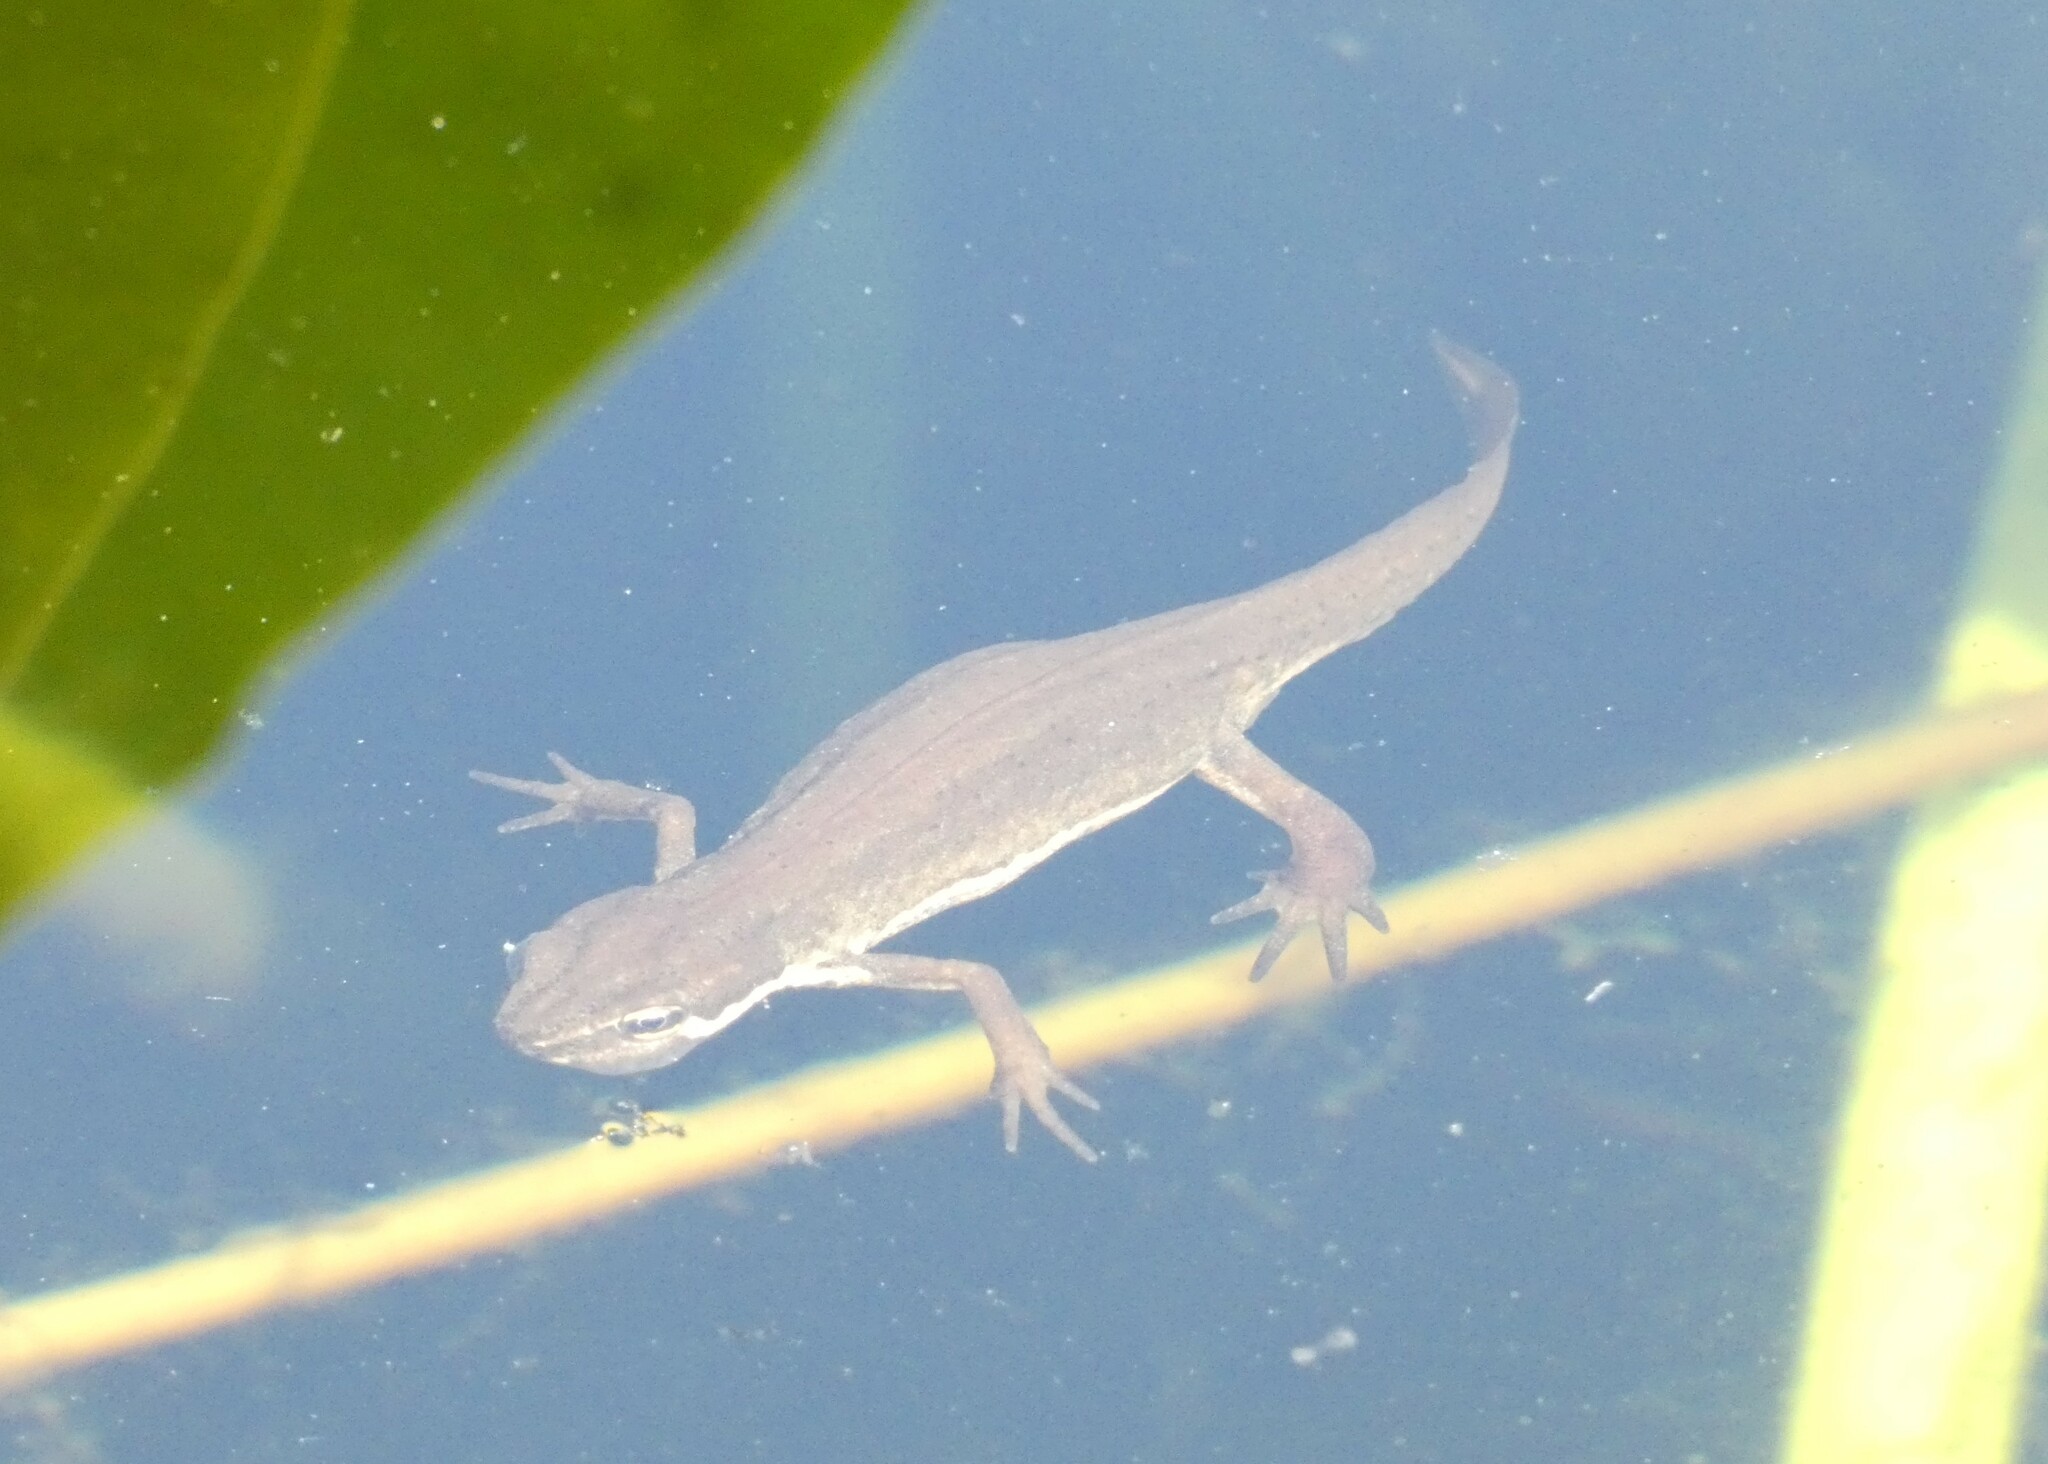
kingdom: Animalia
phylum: Chordata
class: Amphibia
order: Caudata
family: Salamandridae
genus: Lissotriton
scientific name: Lissotriton vulgaris
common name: Smooth newt
